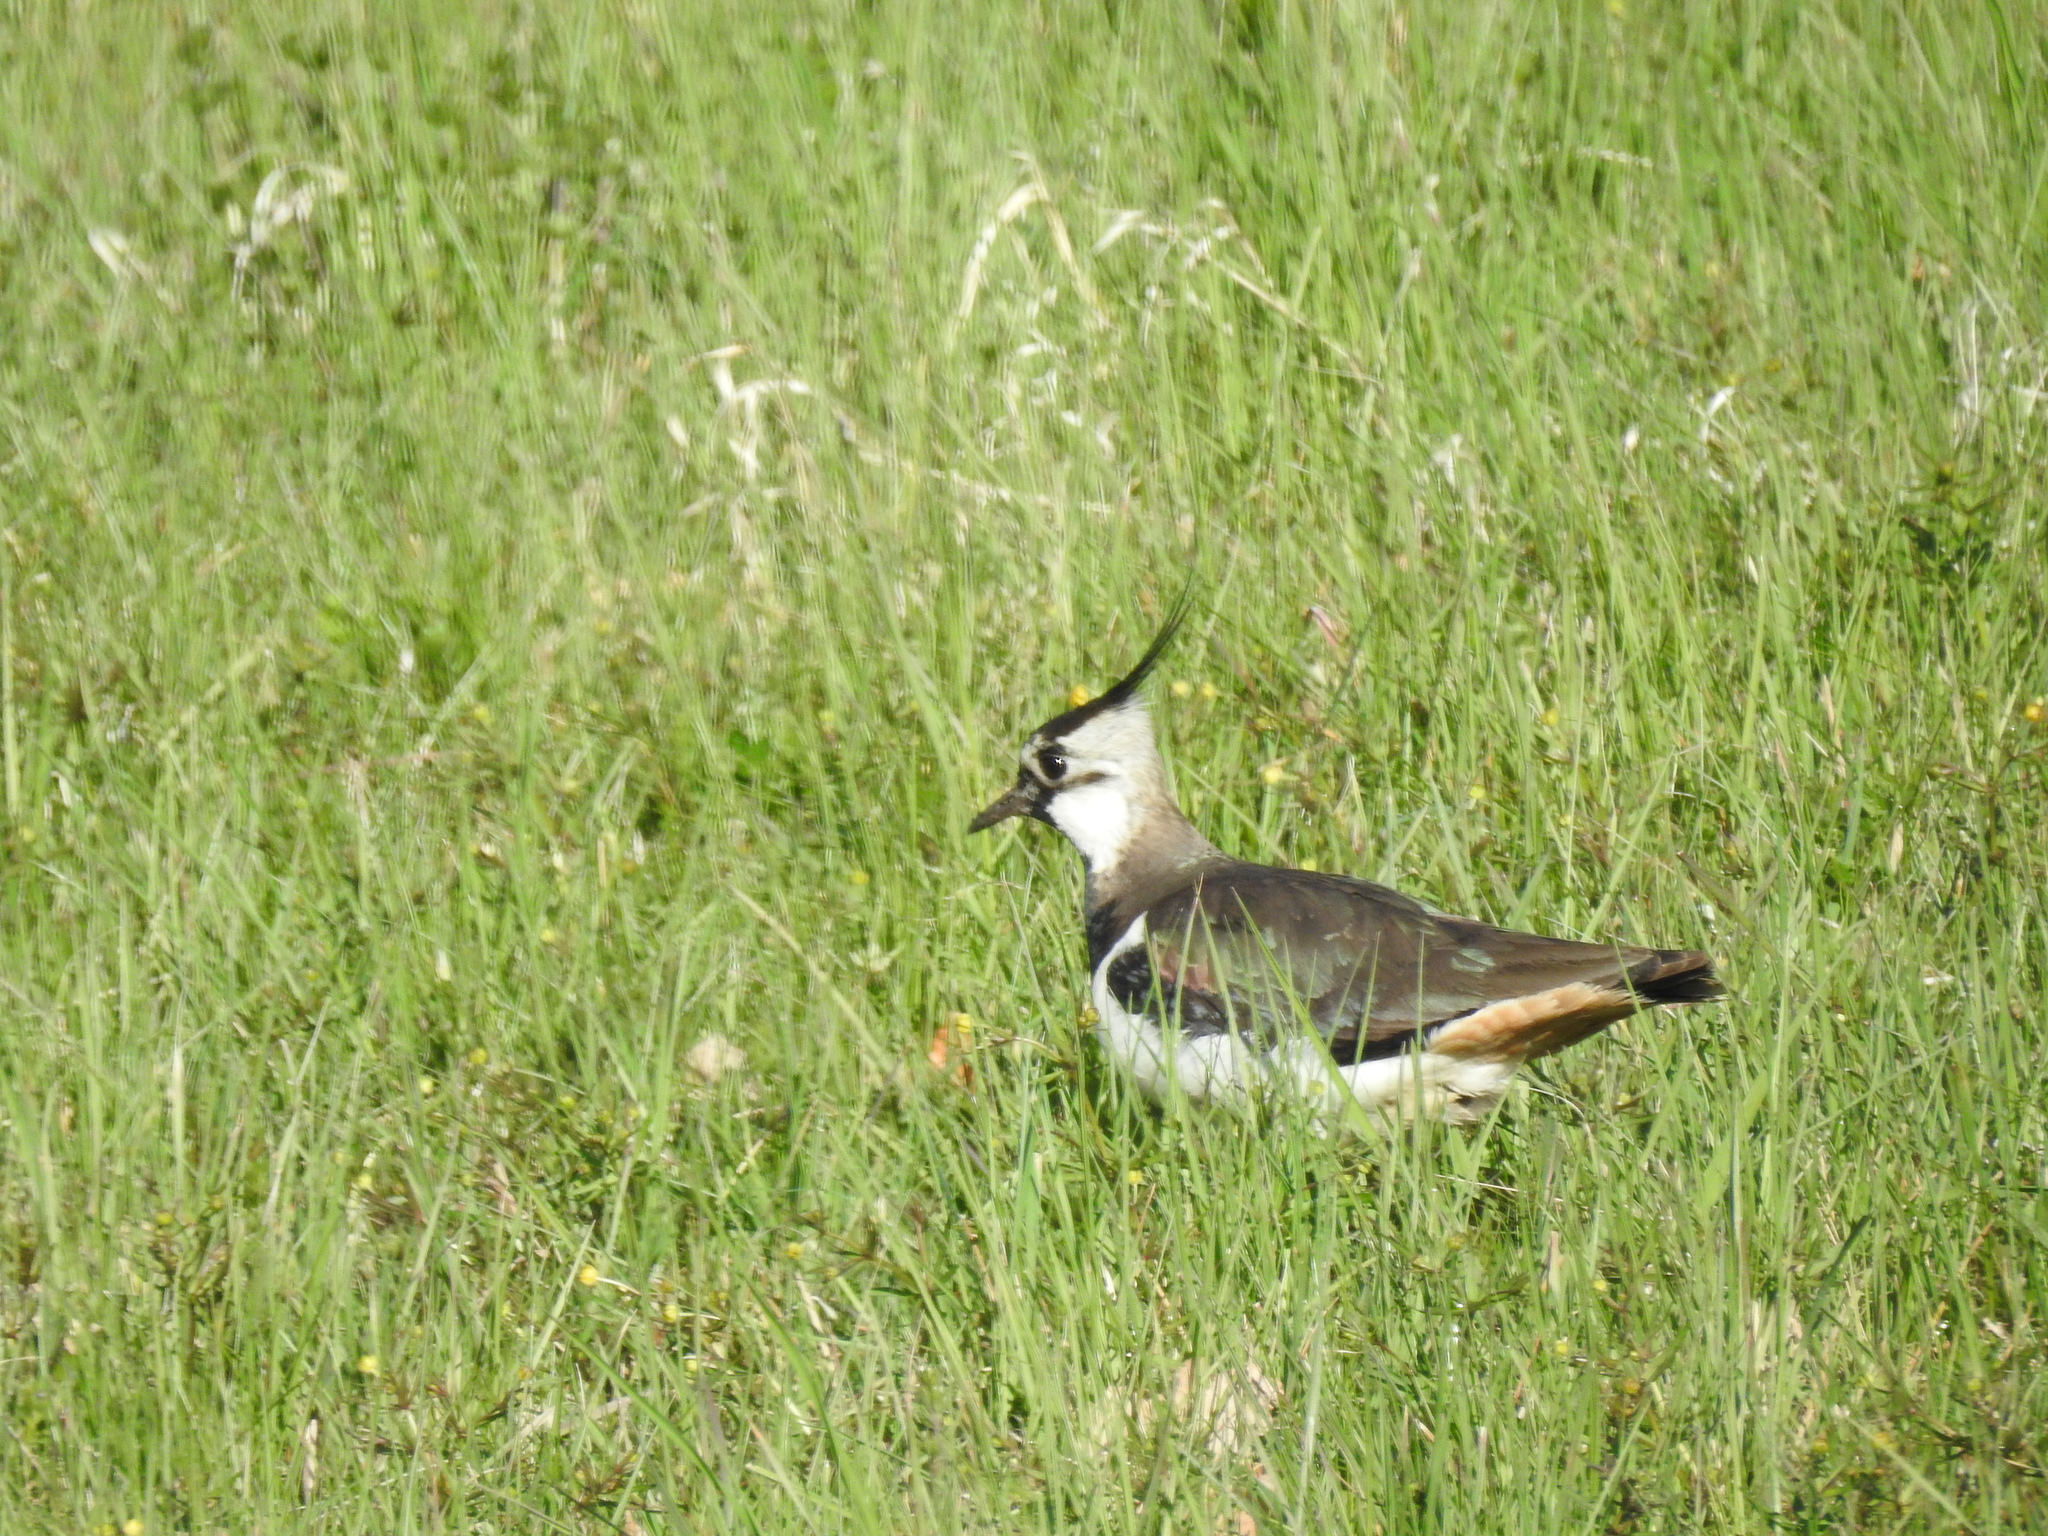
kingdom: Animalia
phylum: Chordata
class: Aves
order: Charadriiformes
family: Charadriidae
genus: Vanellus
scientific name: Vanellus vanellus
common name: Northern lapwing
